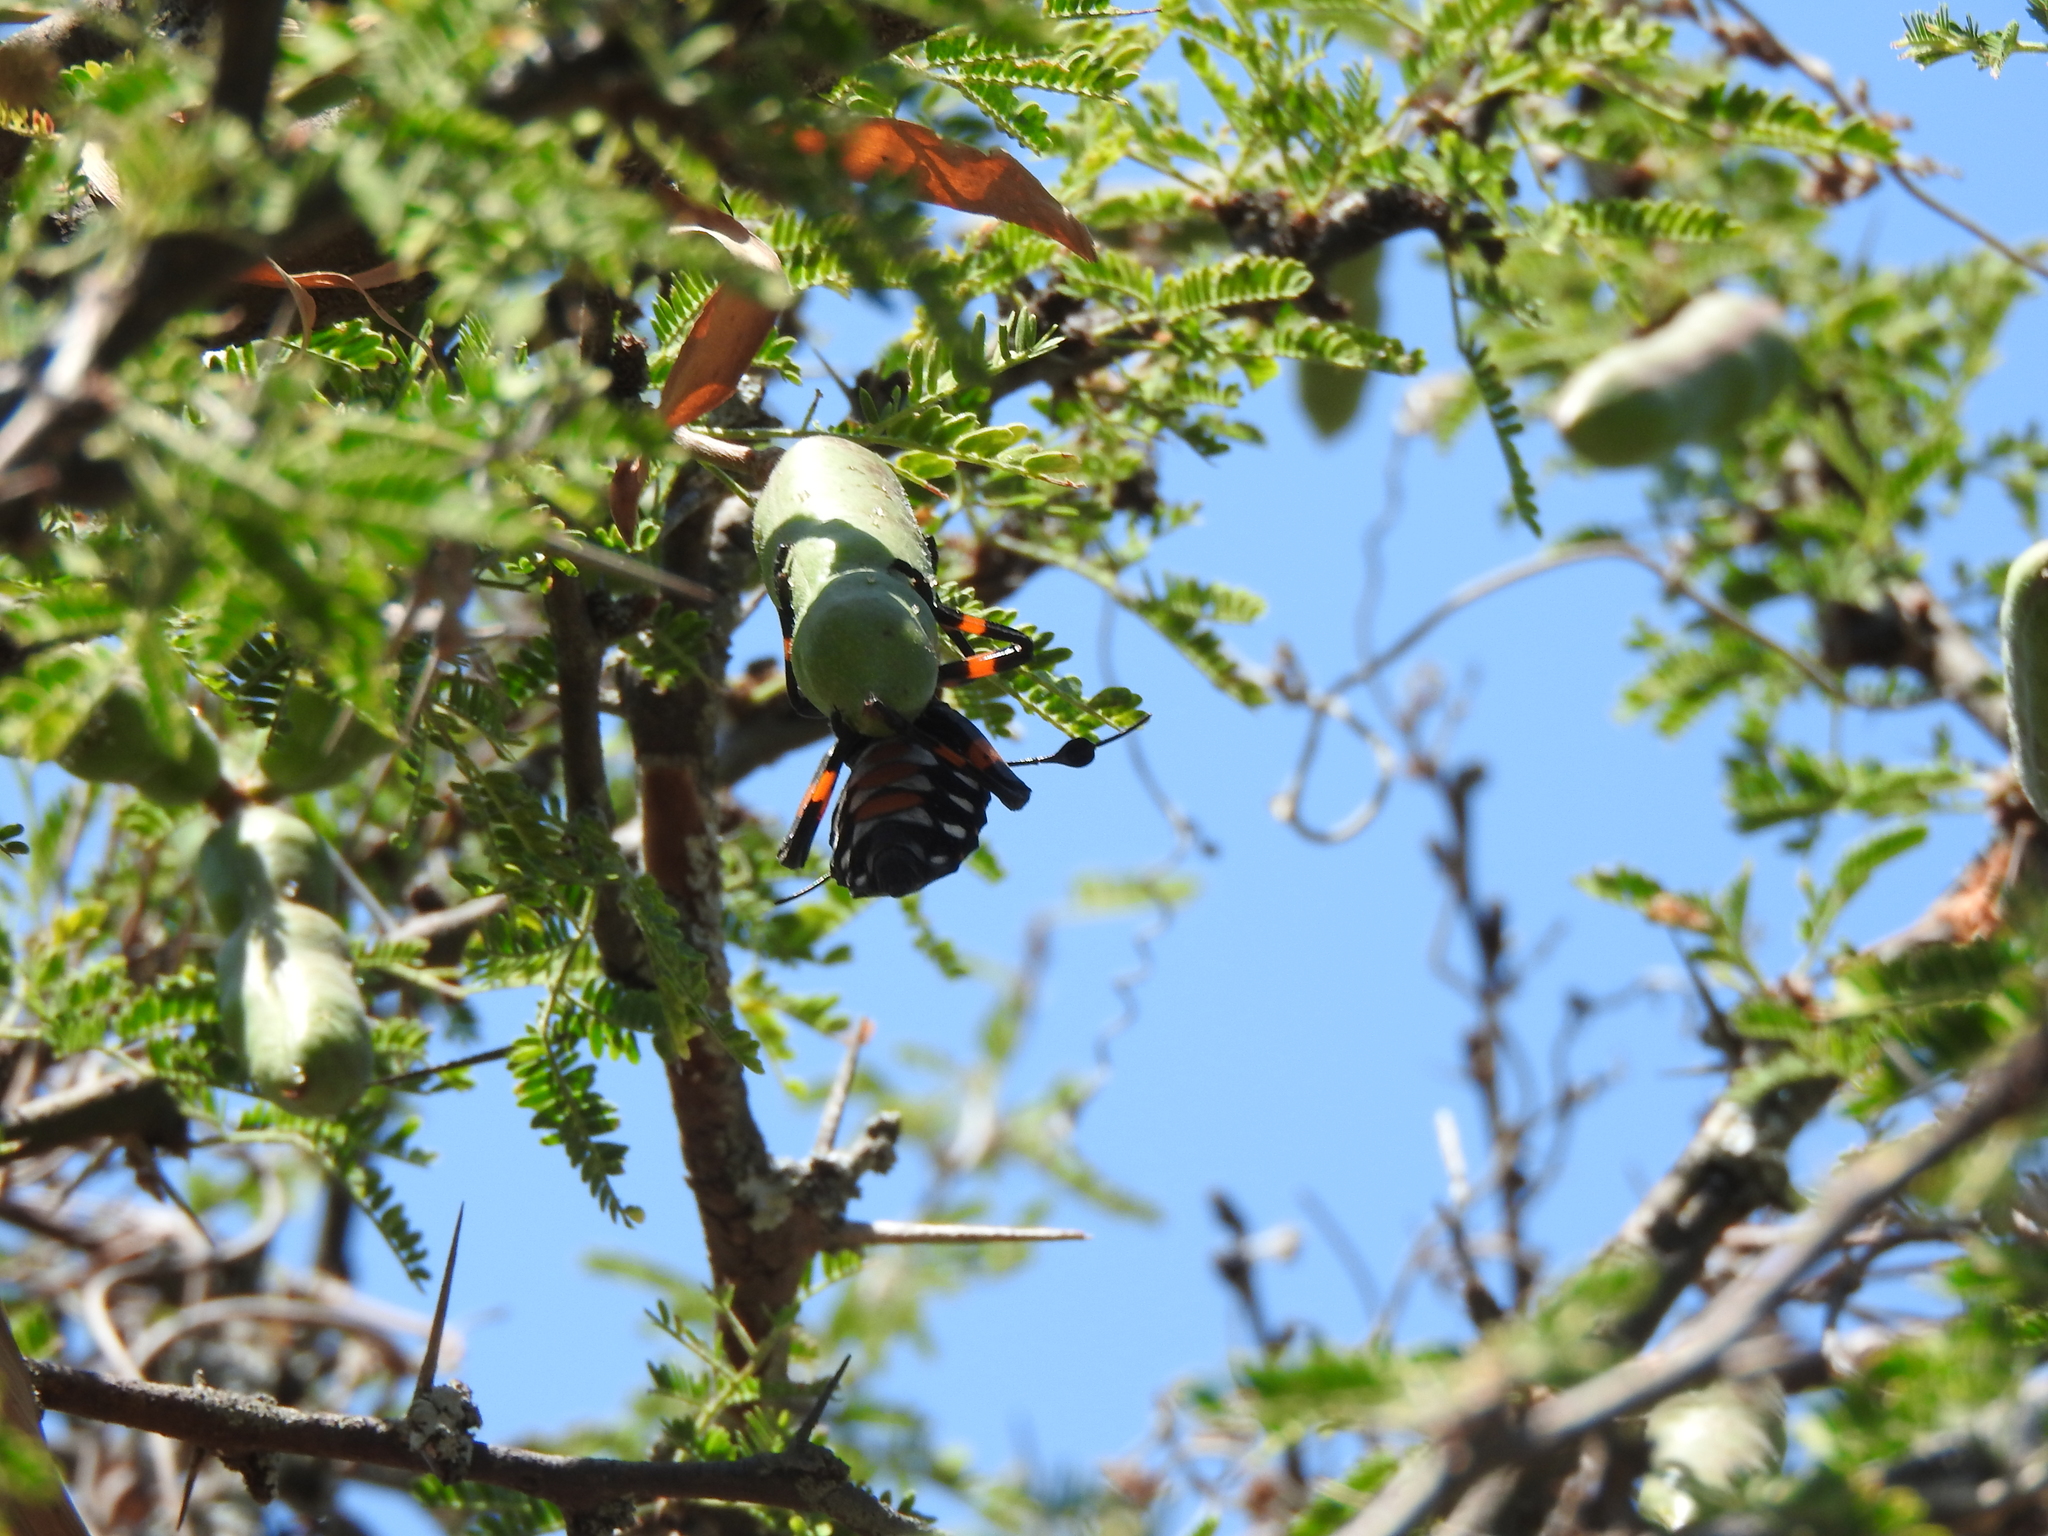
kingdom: Animalia
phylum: Arthropoda
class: Insecta
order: Hemiptera
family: Coreidae
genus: Thasus
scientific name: Thasus
